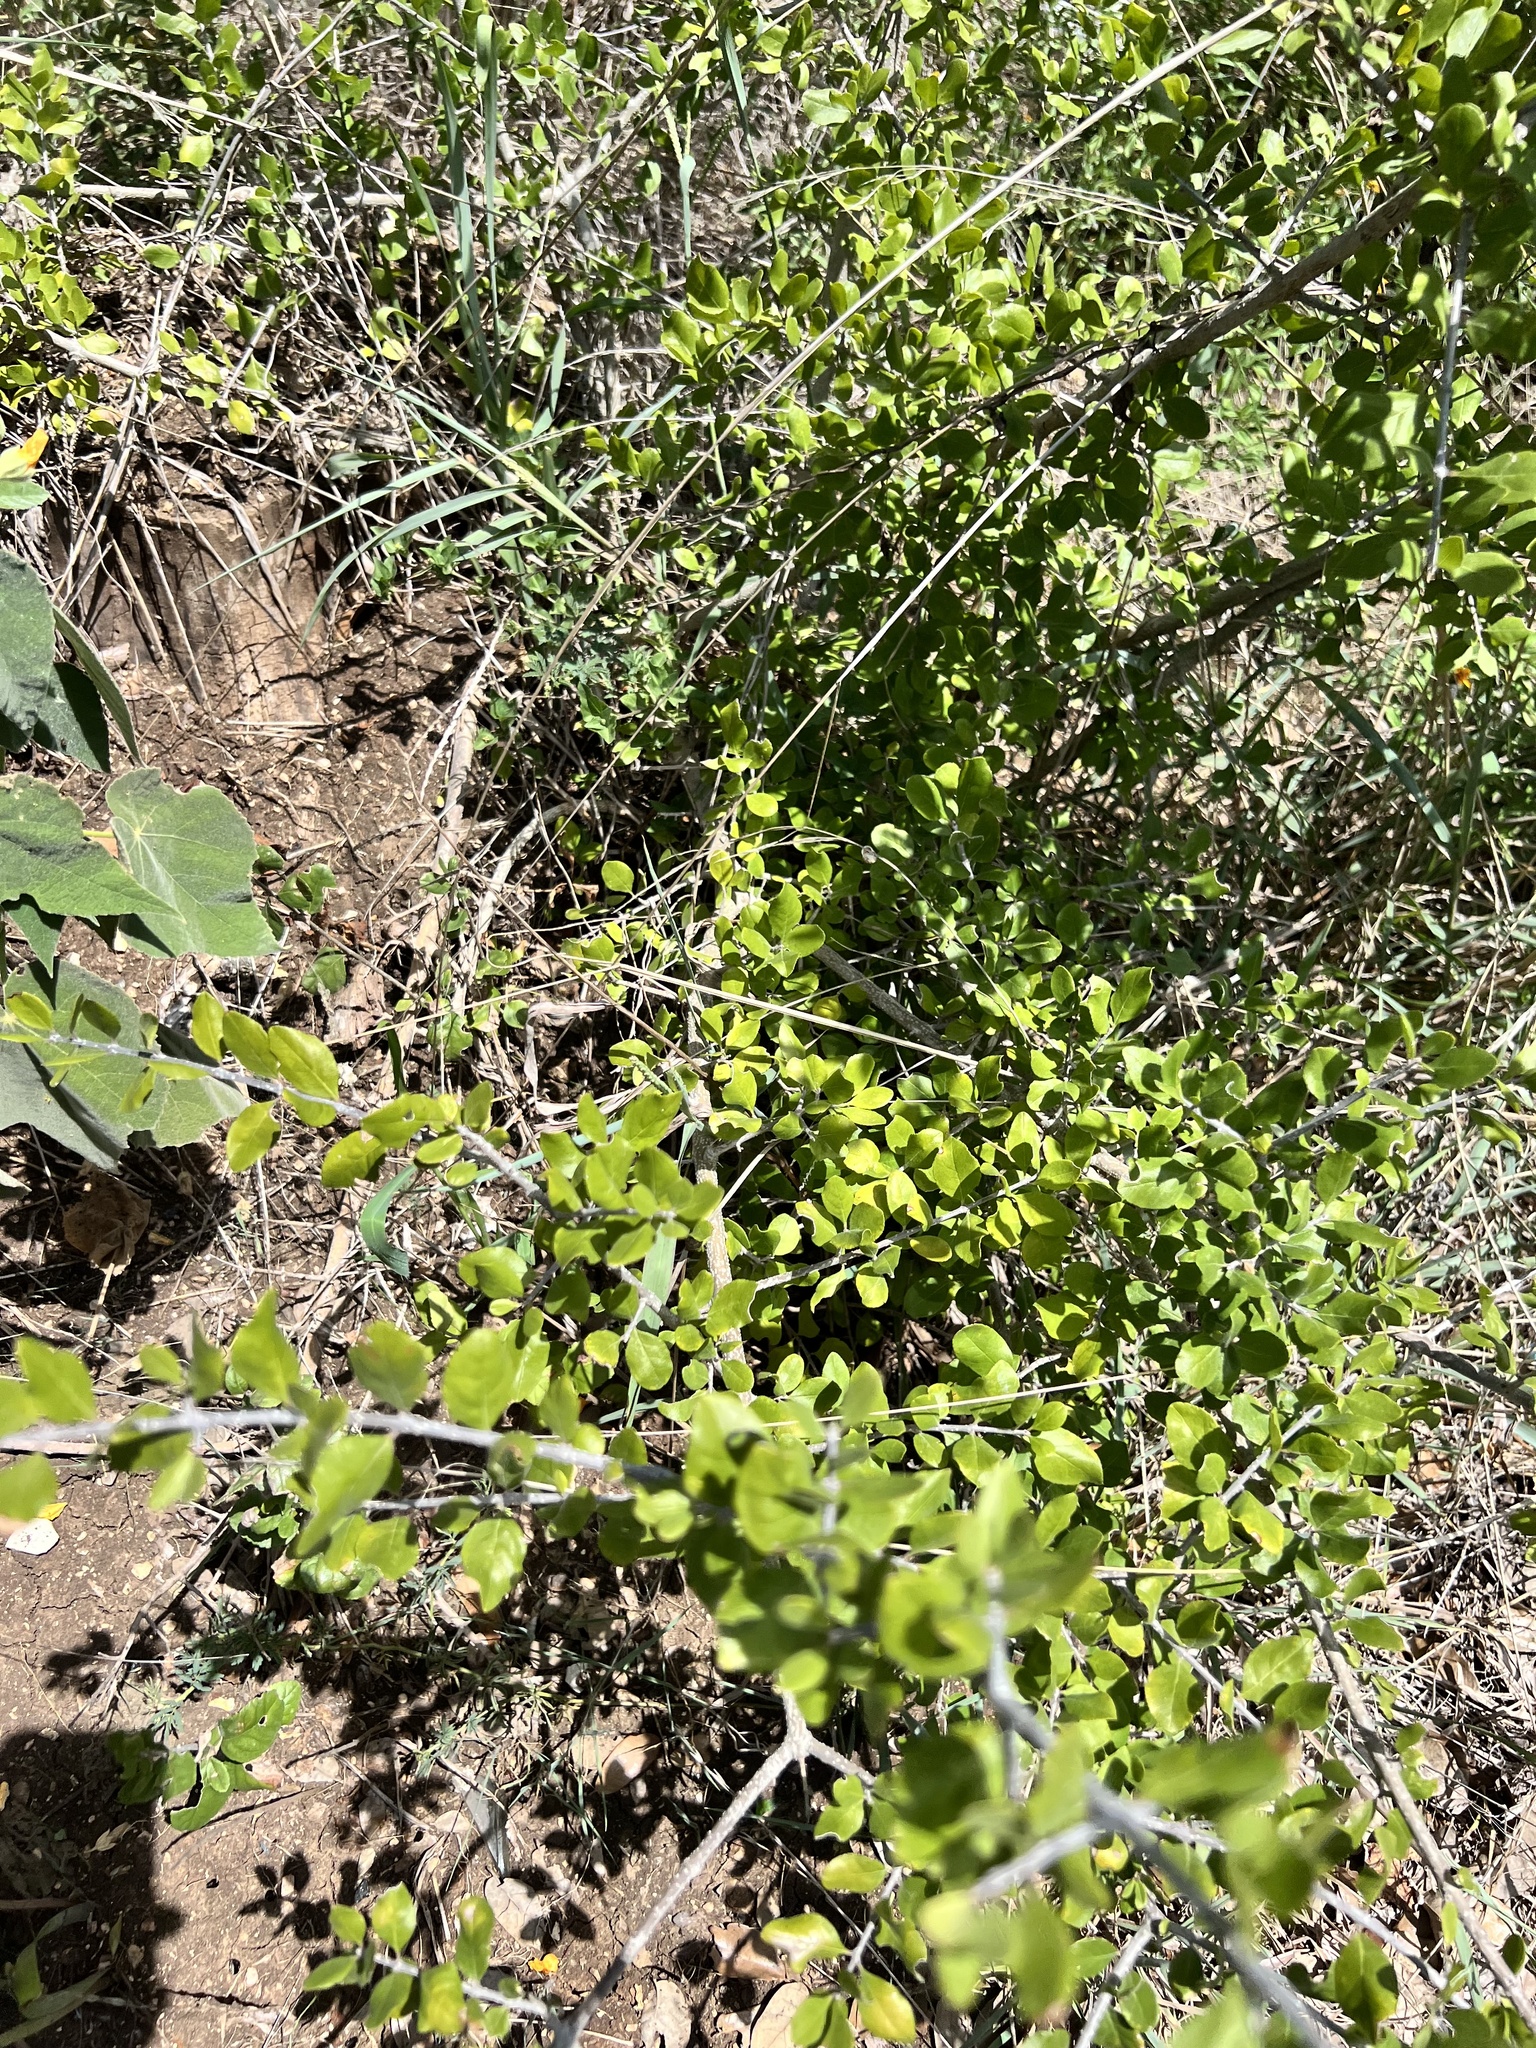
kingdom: Plantae
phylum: Tracheophyta
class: Magnoliopsida
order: Lamiales
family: Oleaceae
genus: Forestiera
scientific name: Forestiera pubescens
